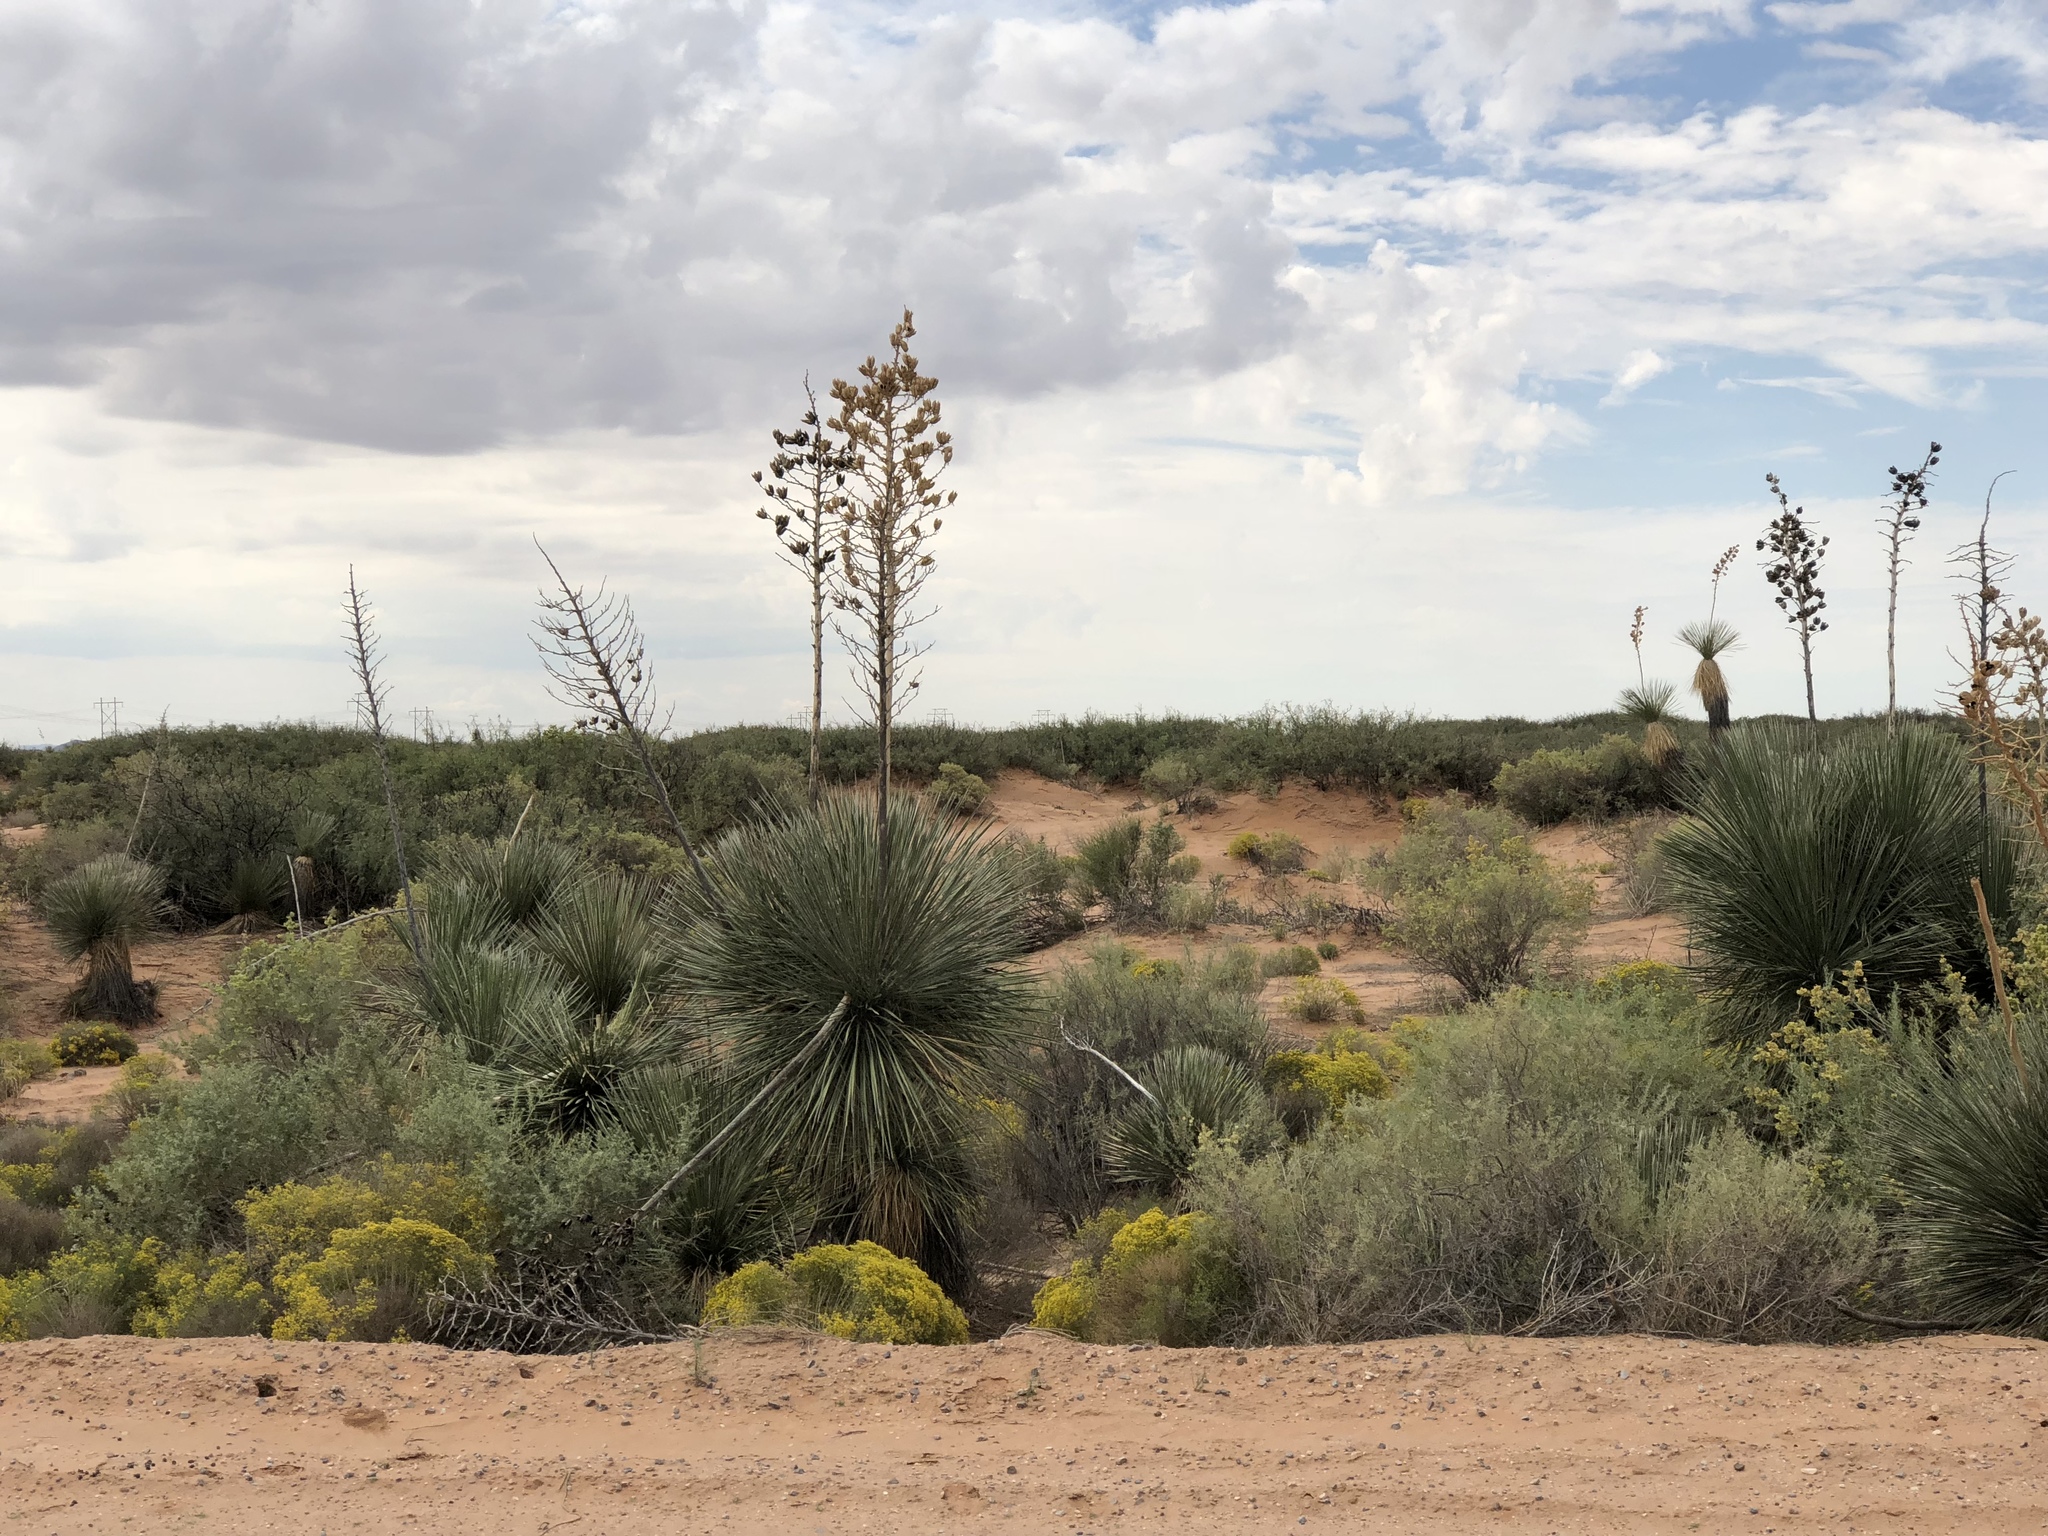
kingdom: Plantae
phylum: Tracheophyta
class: Liliopsida
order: Asparagales
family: Asparagaceae
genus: Yucca
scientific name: Yucca elata
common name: Palmella
